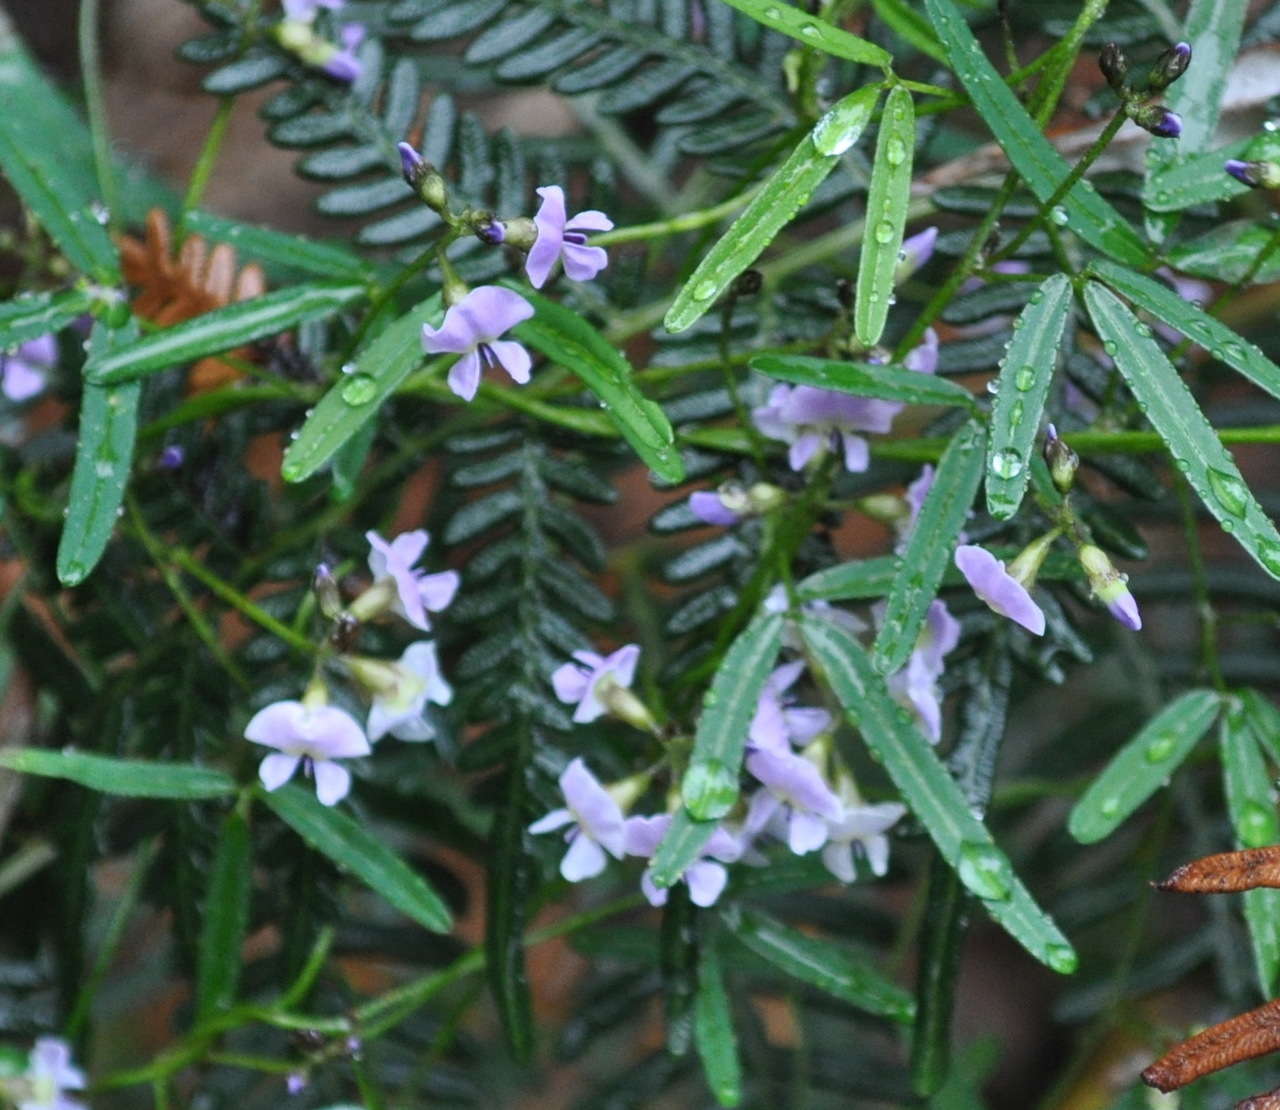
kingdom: Plantae
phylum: Tracheophyta
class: Magnoliopsida
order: Fabales
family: Fabaceae
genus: Glycine
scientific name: Glycine clandestina
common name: Twining glycine
